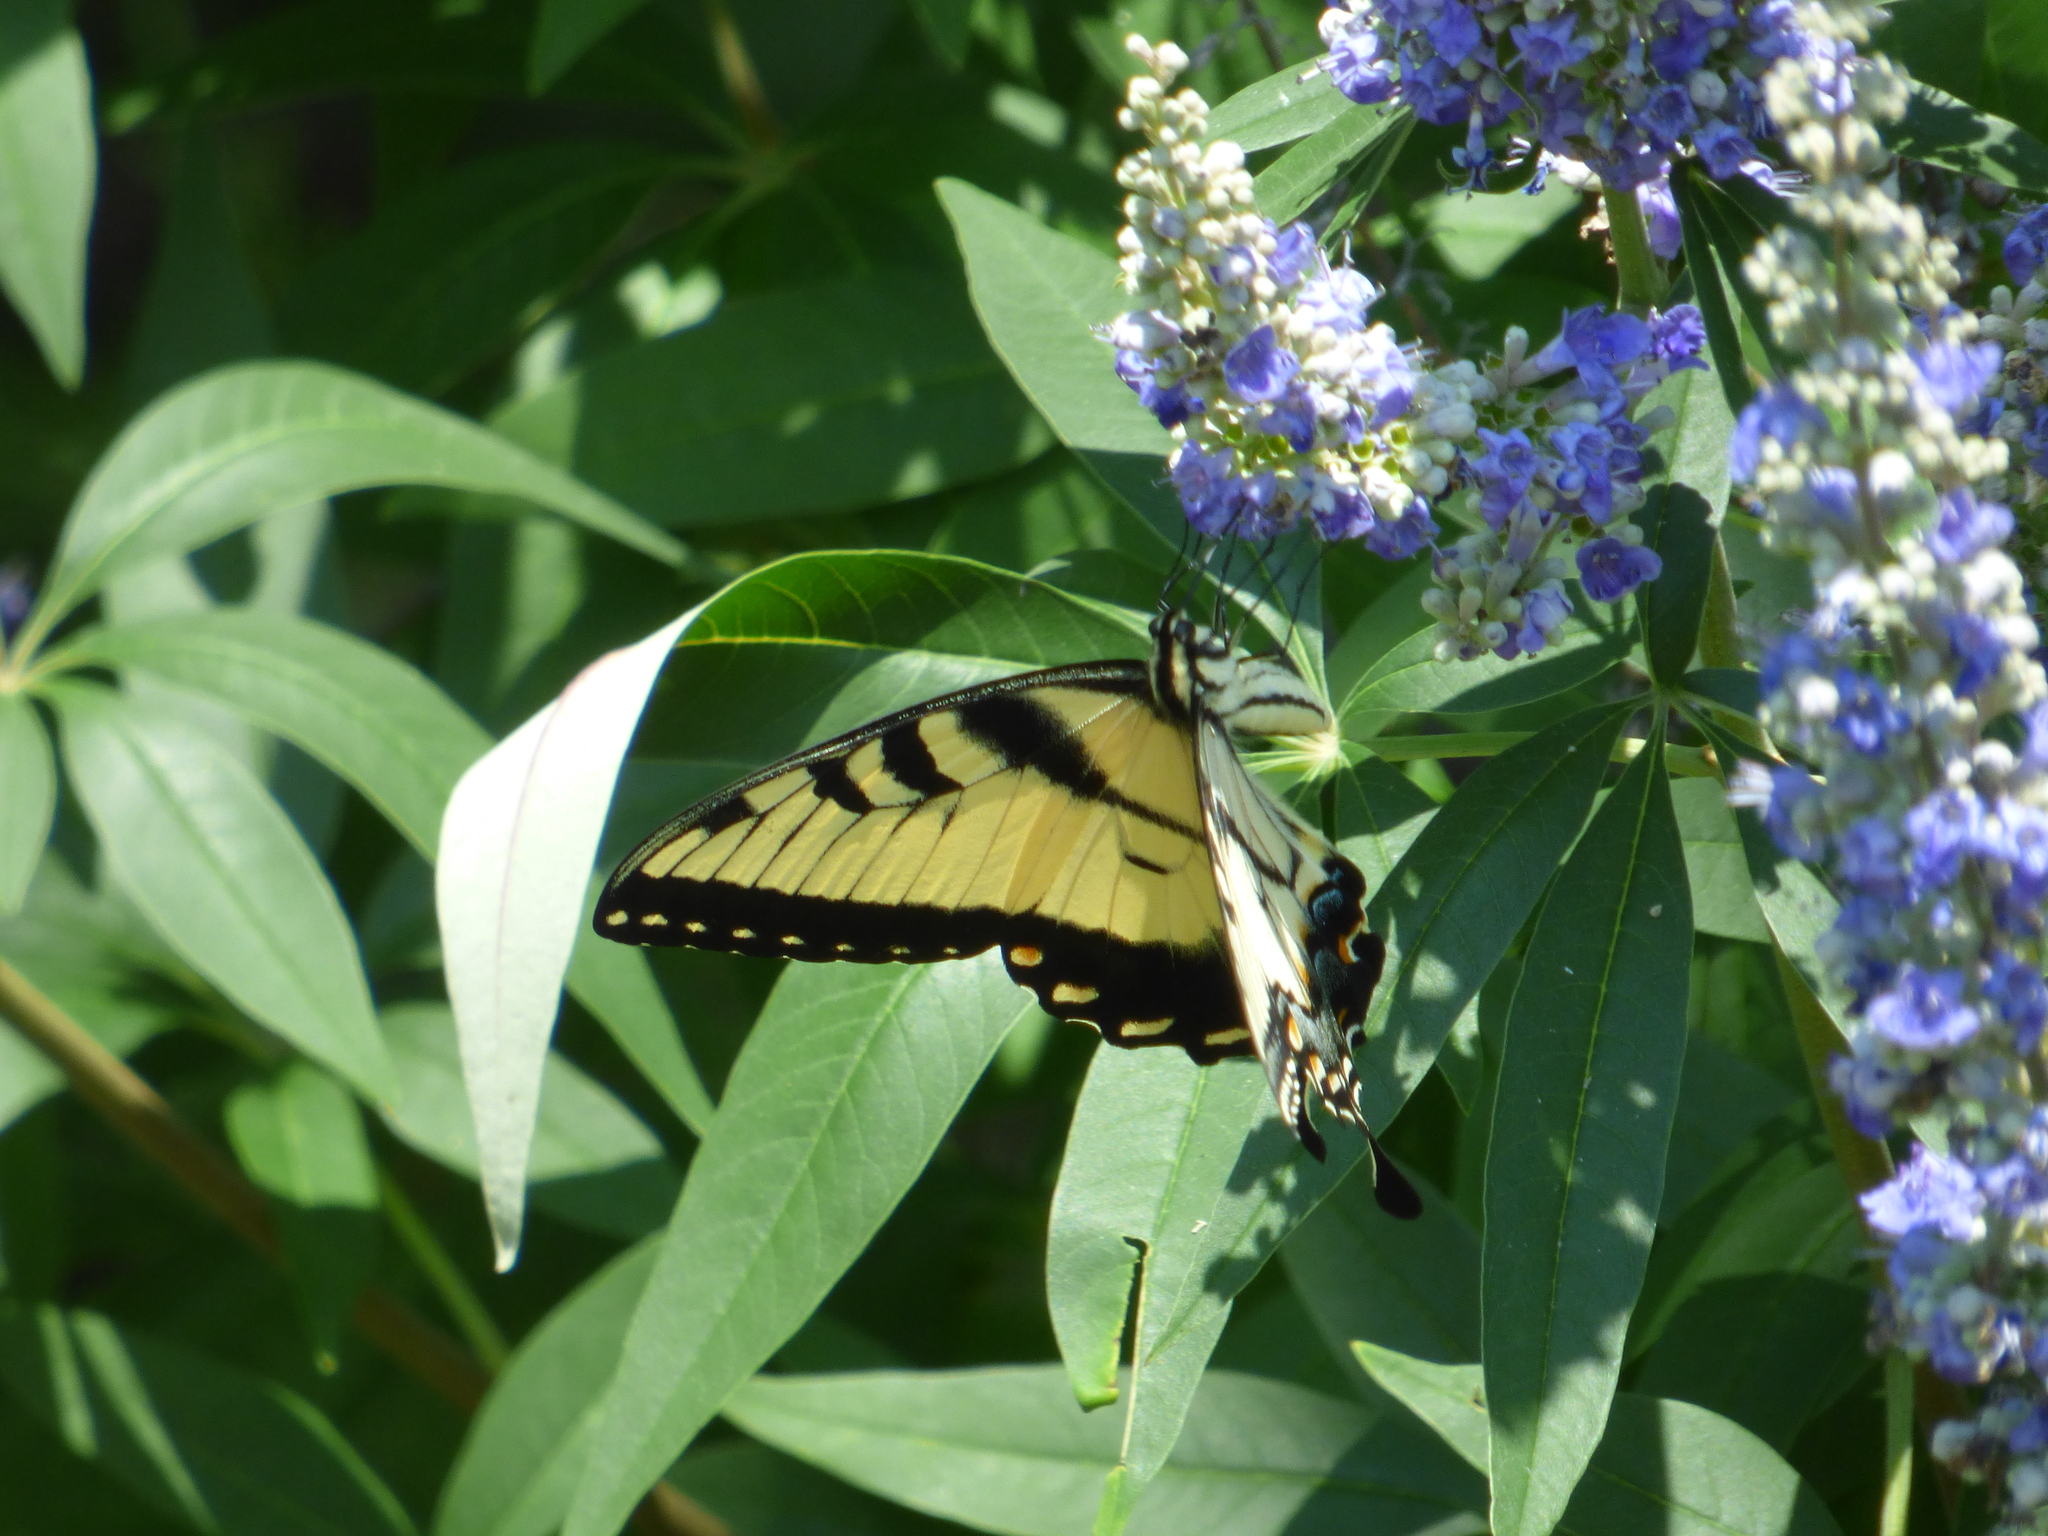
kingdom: Animalia
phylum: Arthropoda
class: Insecta
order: Lepidoptera
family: Papilionidae
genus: Papilio
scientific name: Papilio glaucus
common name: Tiger swallowtail
